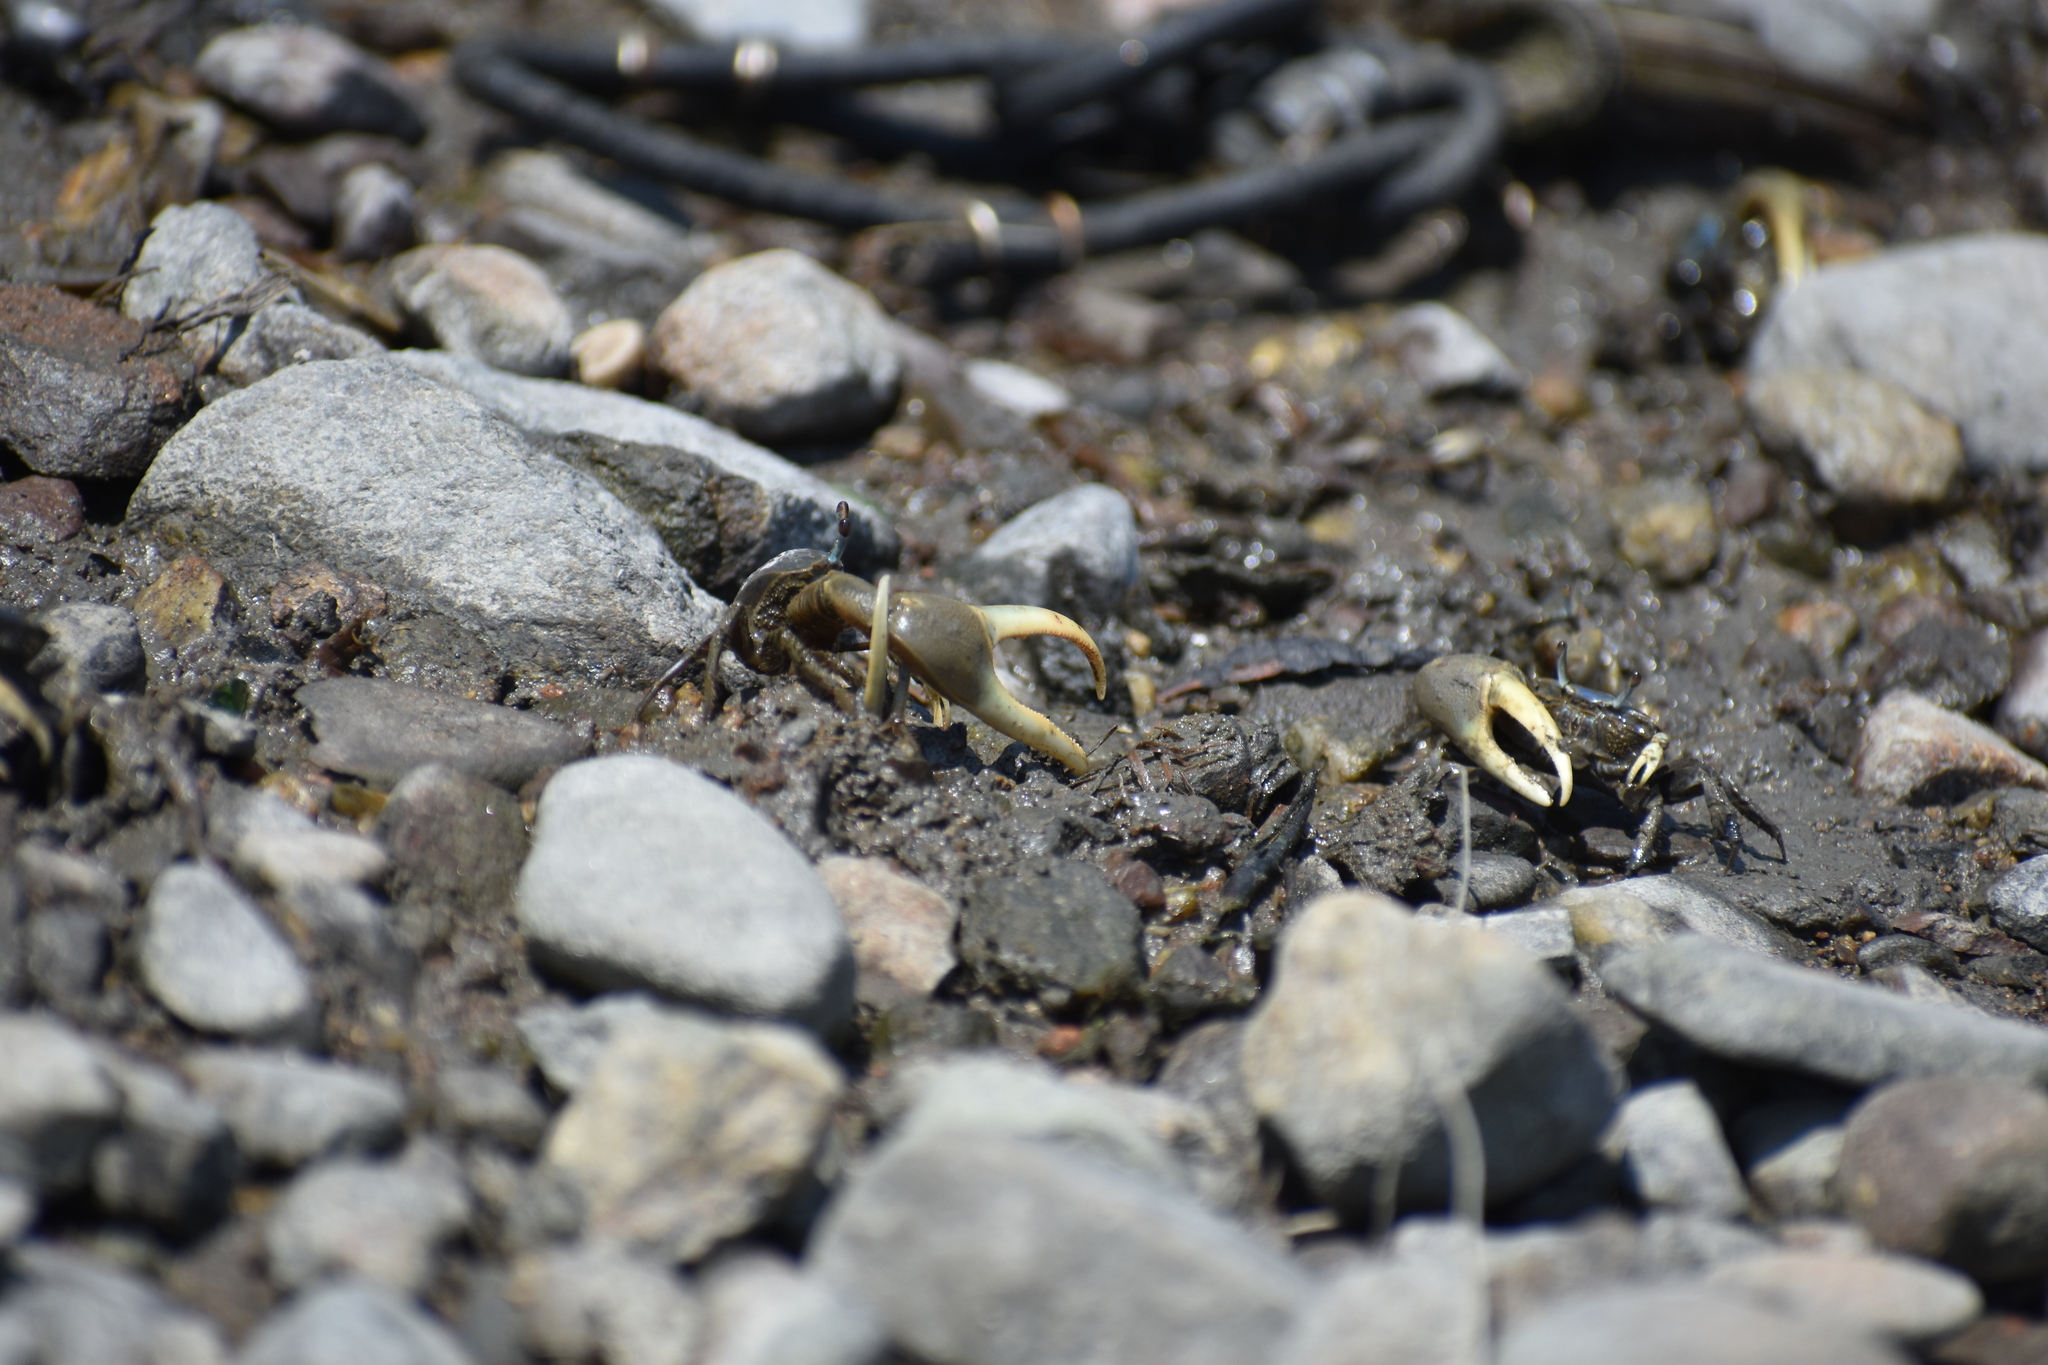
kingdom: Animalia
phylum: Arthropoda
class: Malacostraca
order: Decapoda
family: Ocypodidae
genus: Minuca
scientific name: Minuca pugnax
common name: Mud fiddler crab
